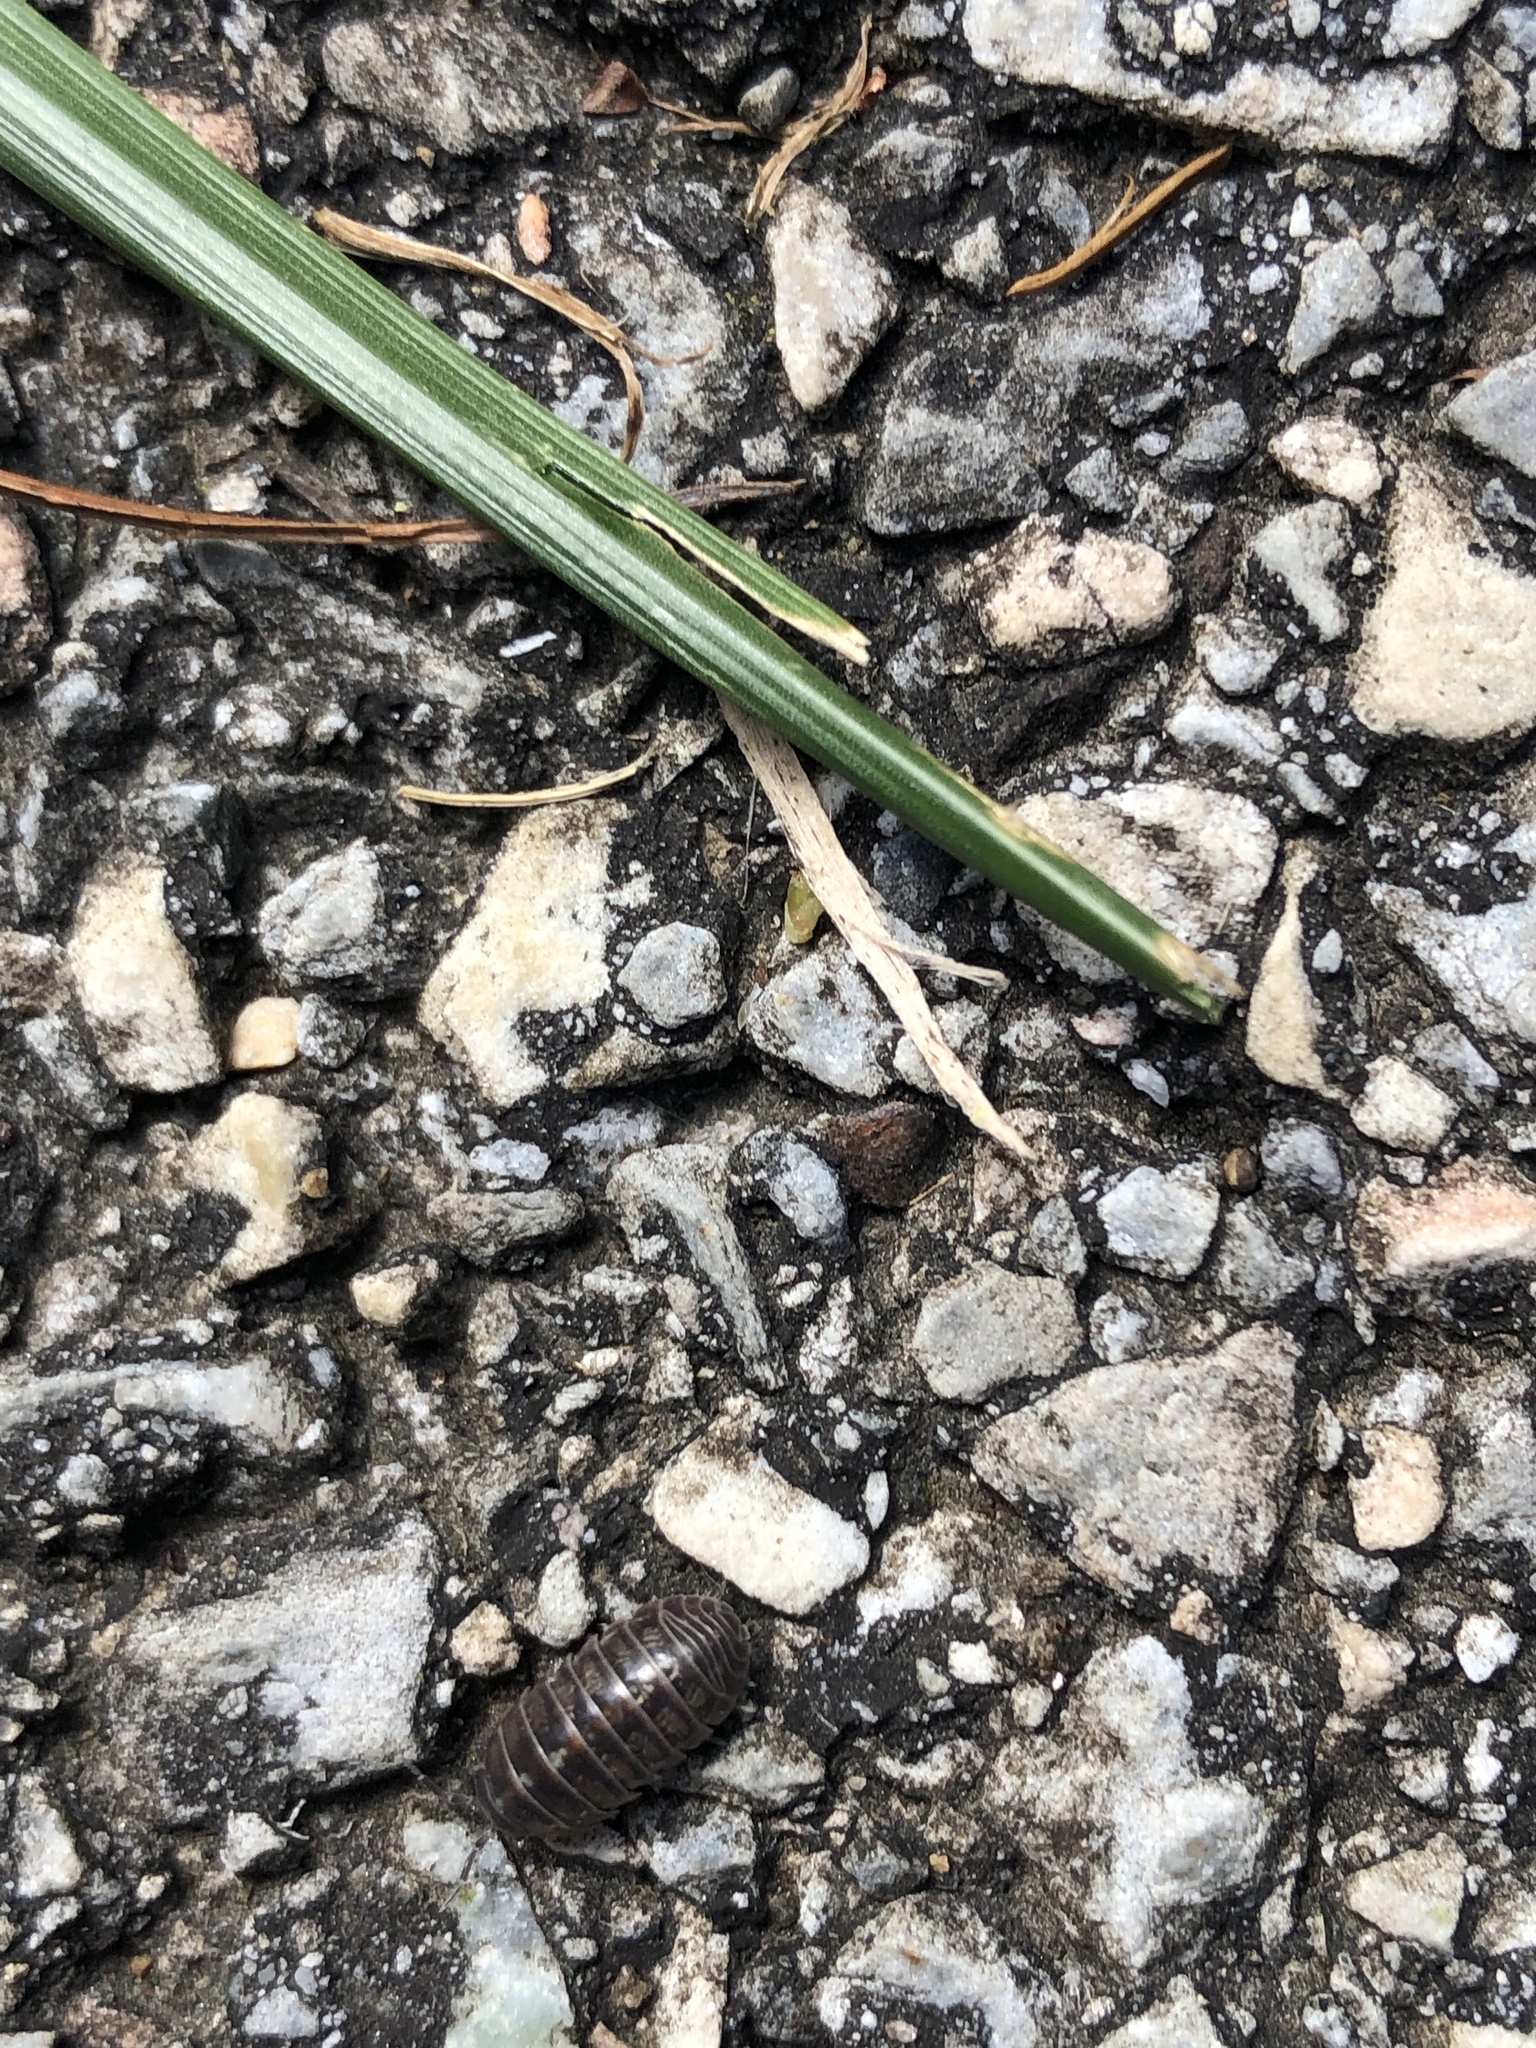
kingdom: Animalia
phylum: Arthropoda
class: Malacostraca
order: Isopoda
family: Armadillidiidae
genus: Armadillidium
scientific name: Armadillidium vulgare
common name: Common pill woodlouse
